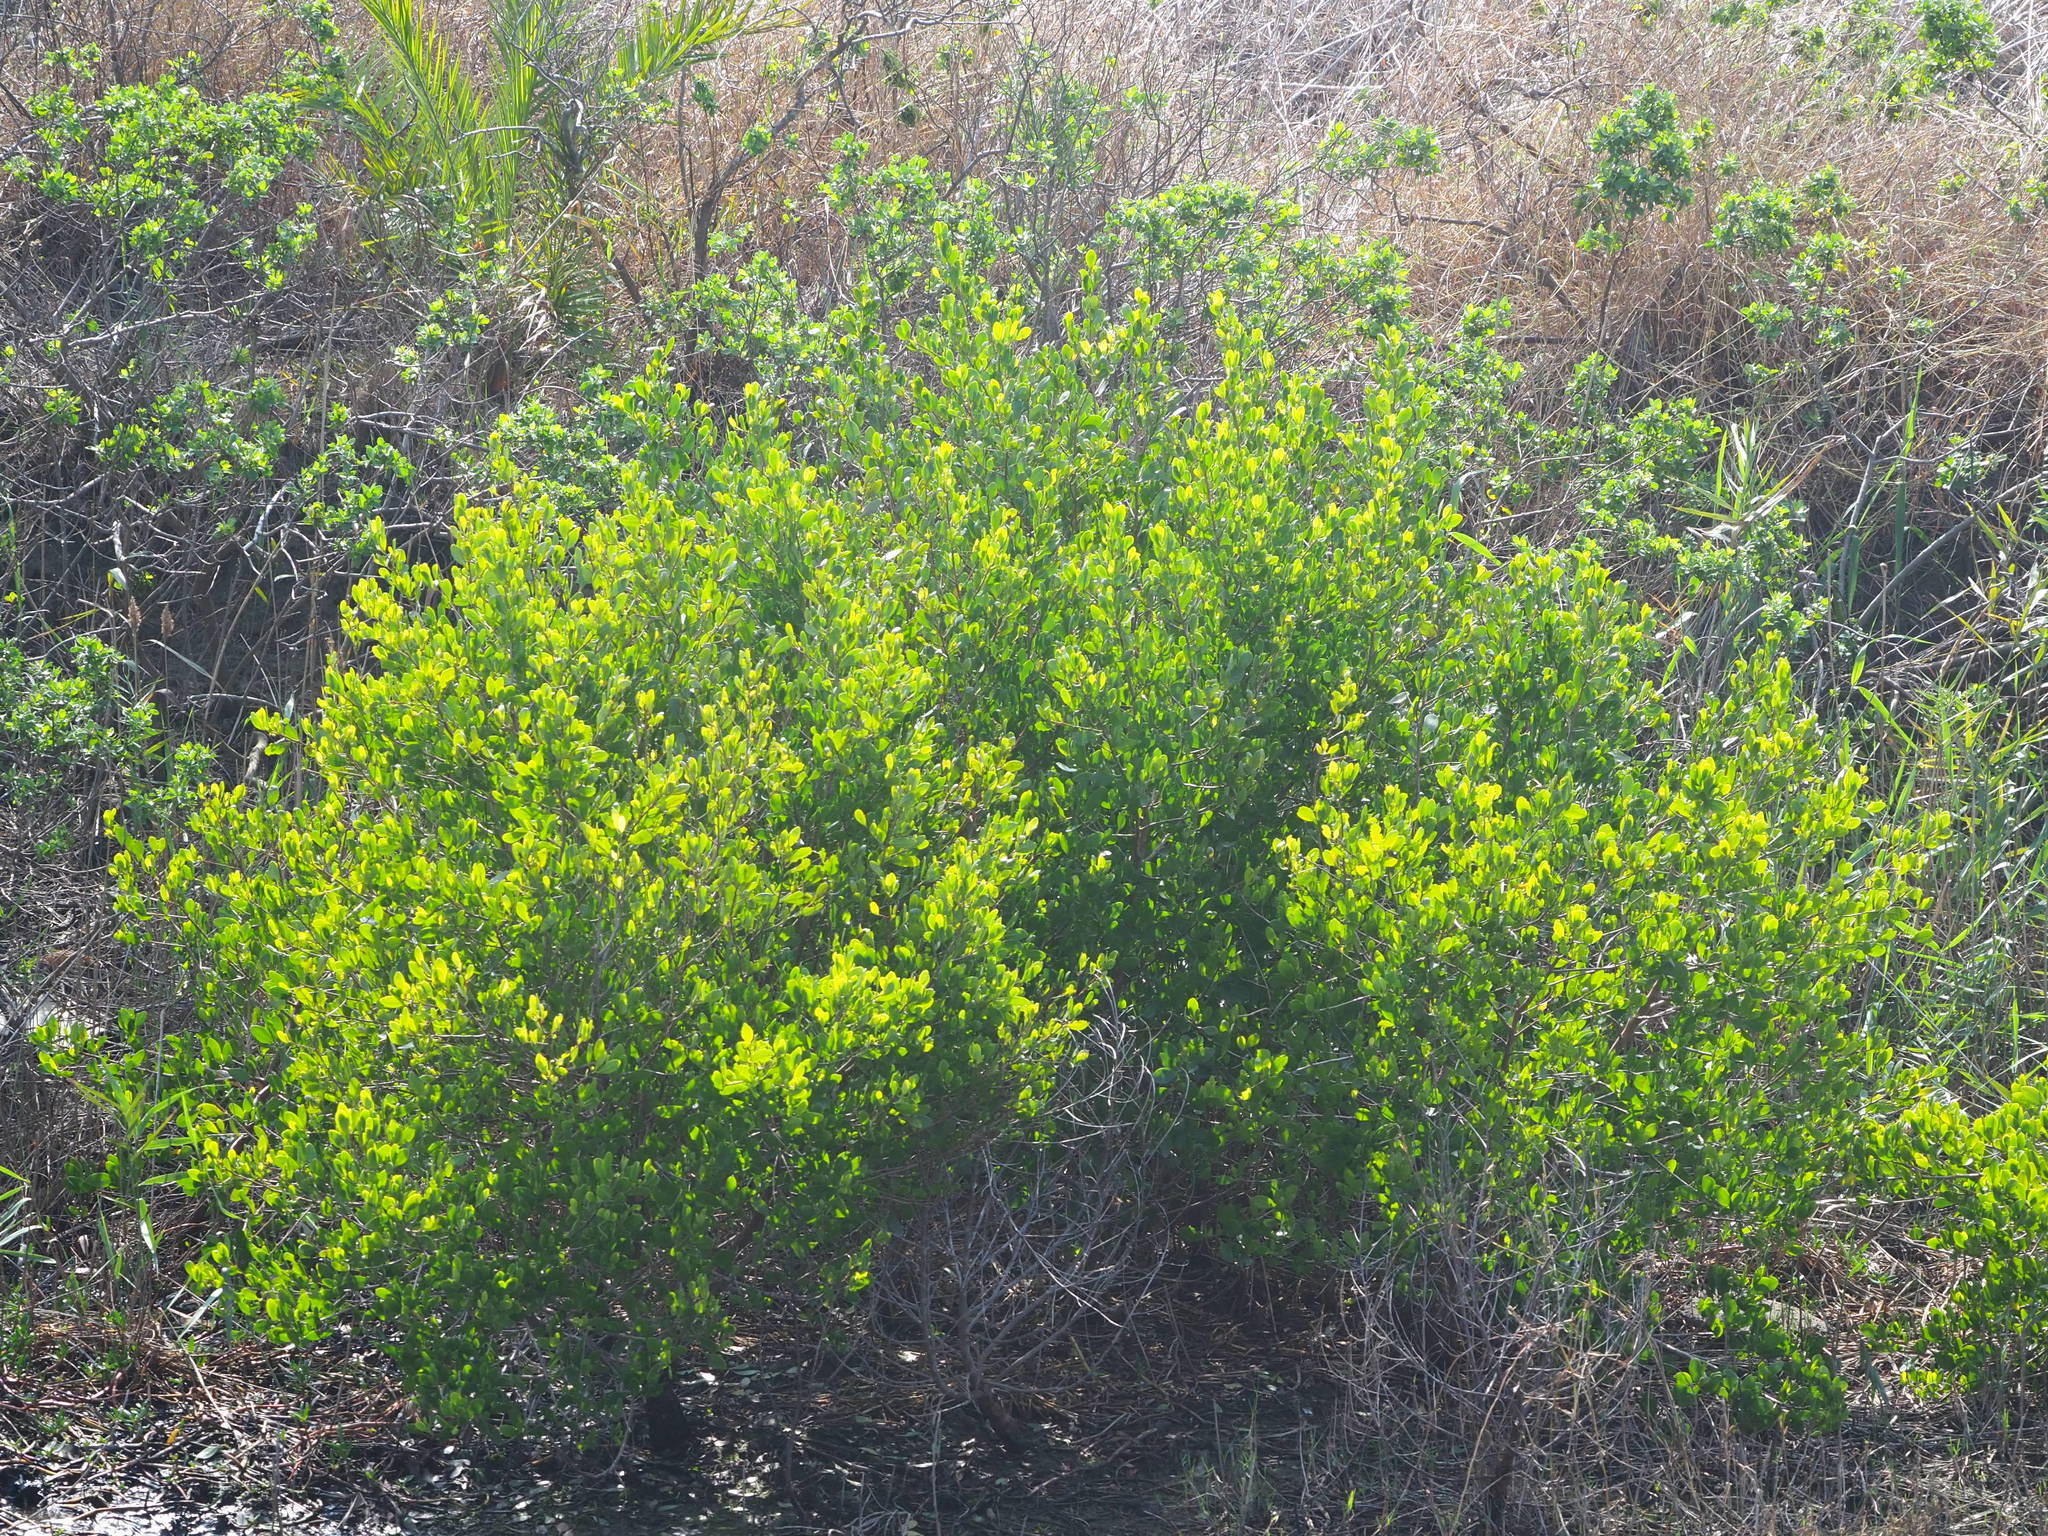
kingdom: Plantae
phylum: Tracheophyta
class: Magnoliopsida
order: Myrtales
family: Combretaceae
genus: Lumnitzera
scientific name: Lumnitzera racemosa
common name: White-flowered black mangrove
